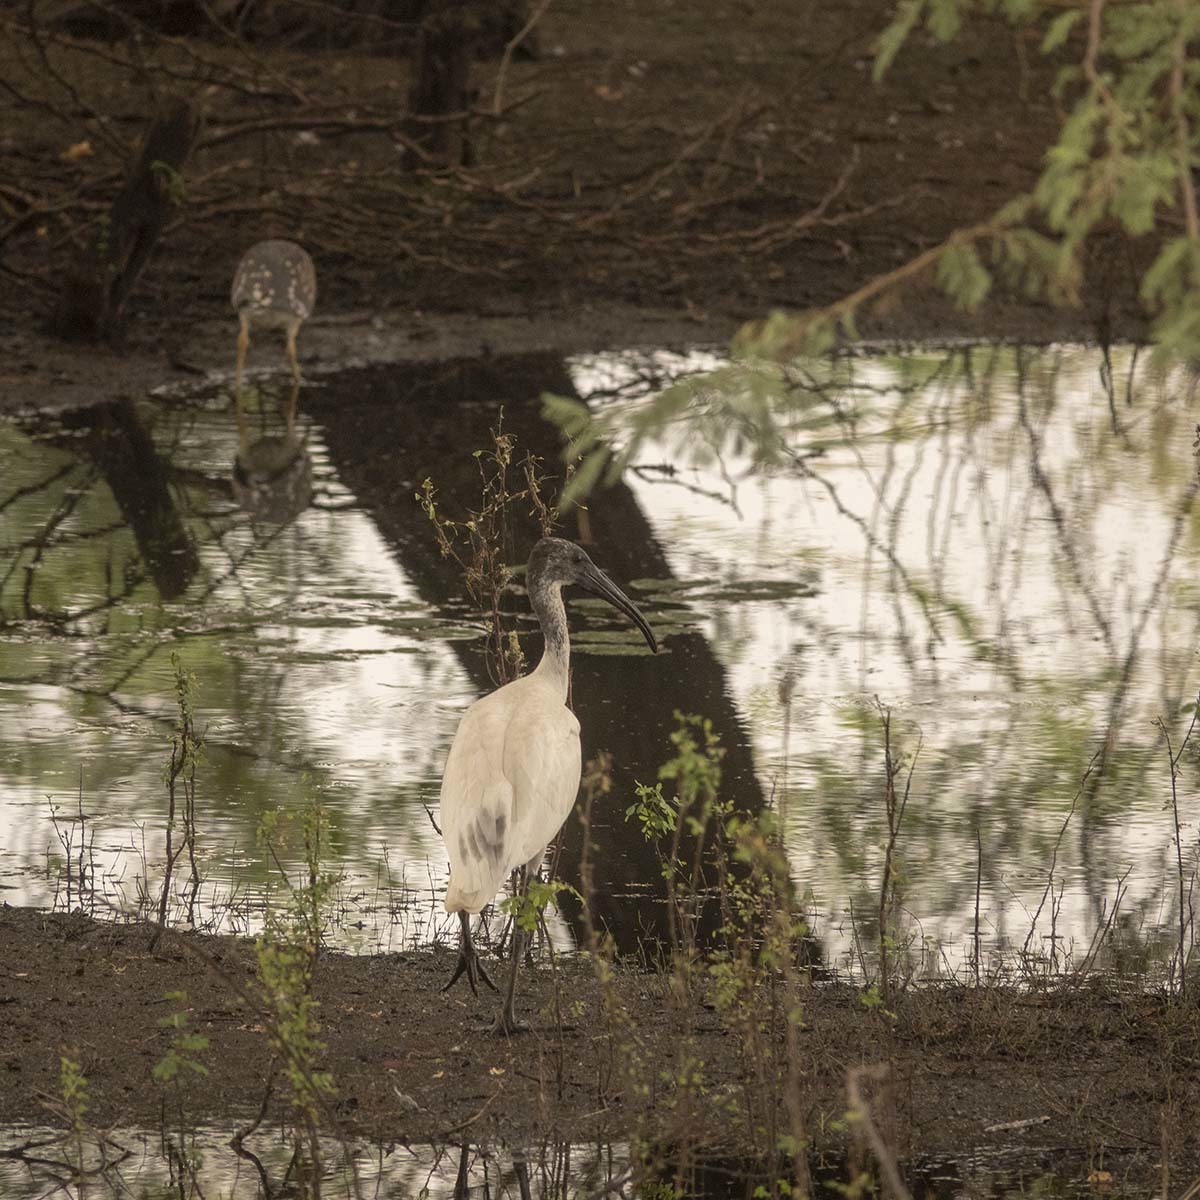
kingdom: Animalia
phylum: Chordata
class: Aves
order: Pelecaniformes
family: Threskiornithidae
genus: Threskiornis
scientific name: Threskiornis melanocephalus
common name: Black-headed ibis
